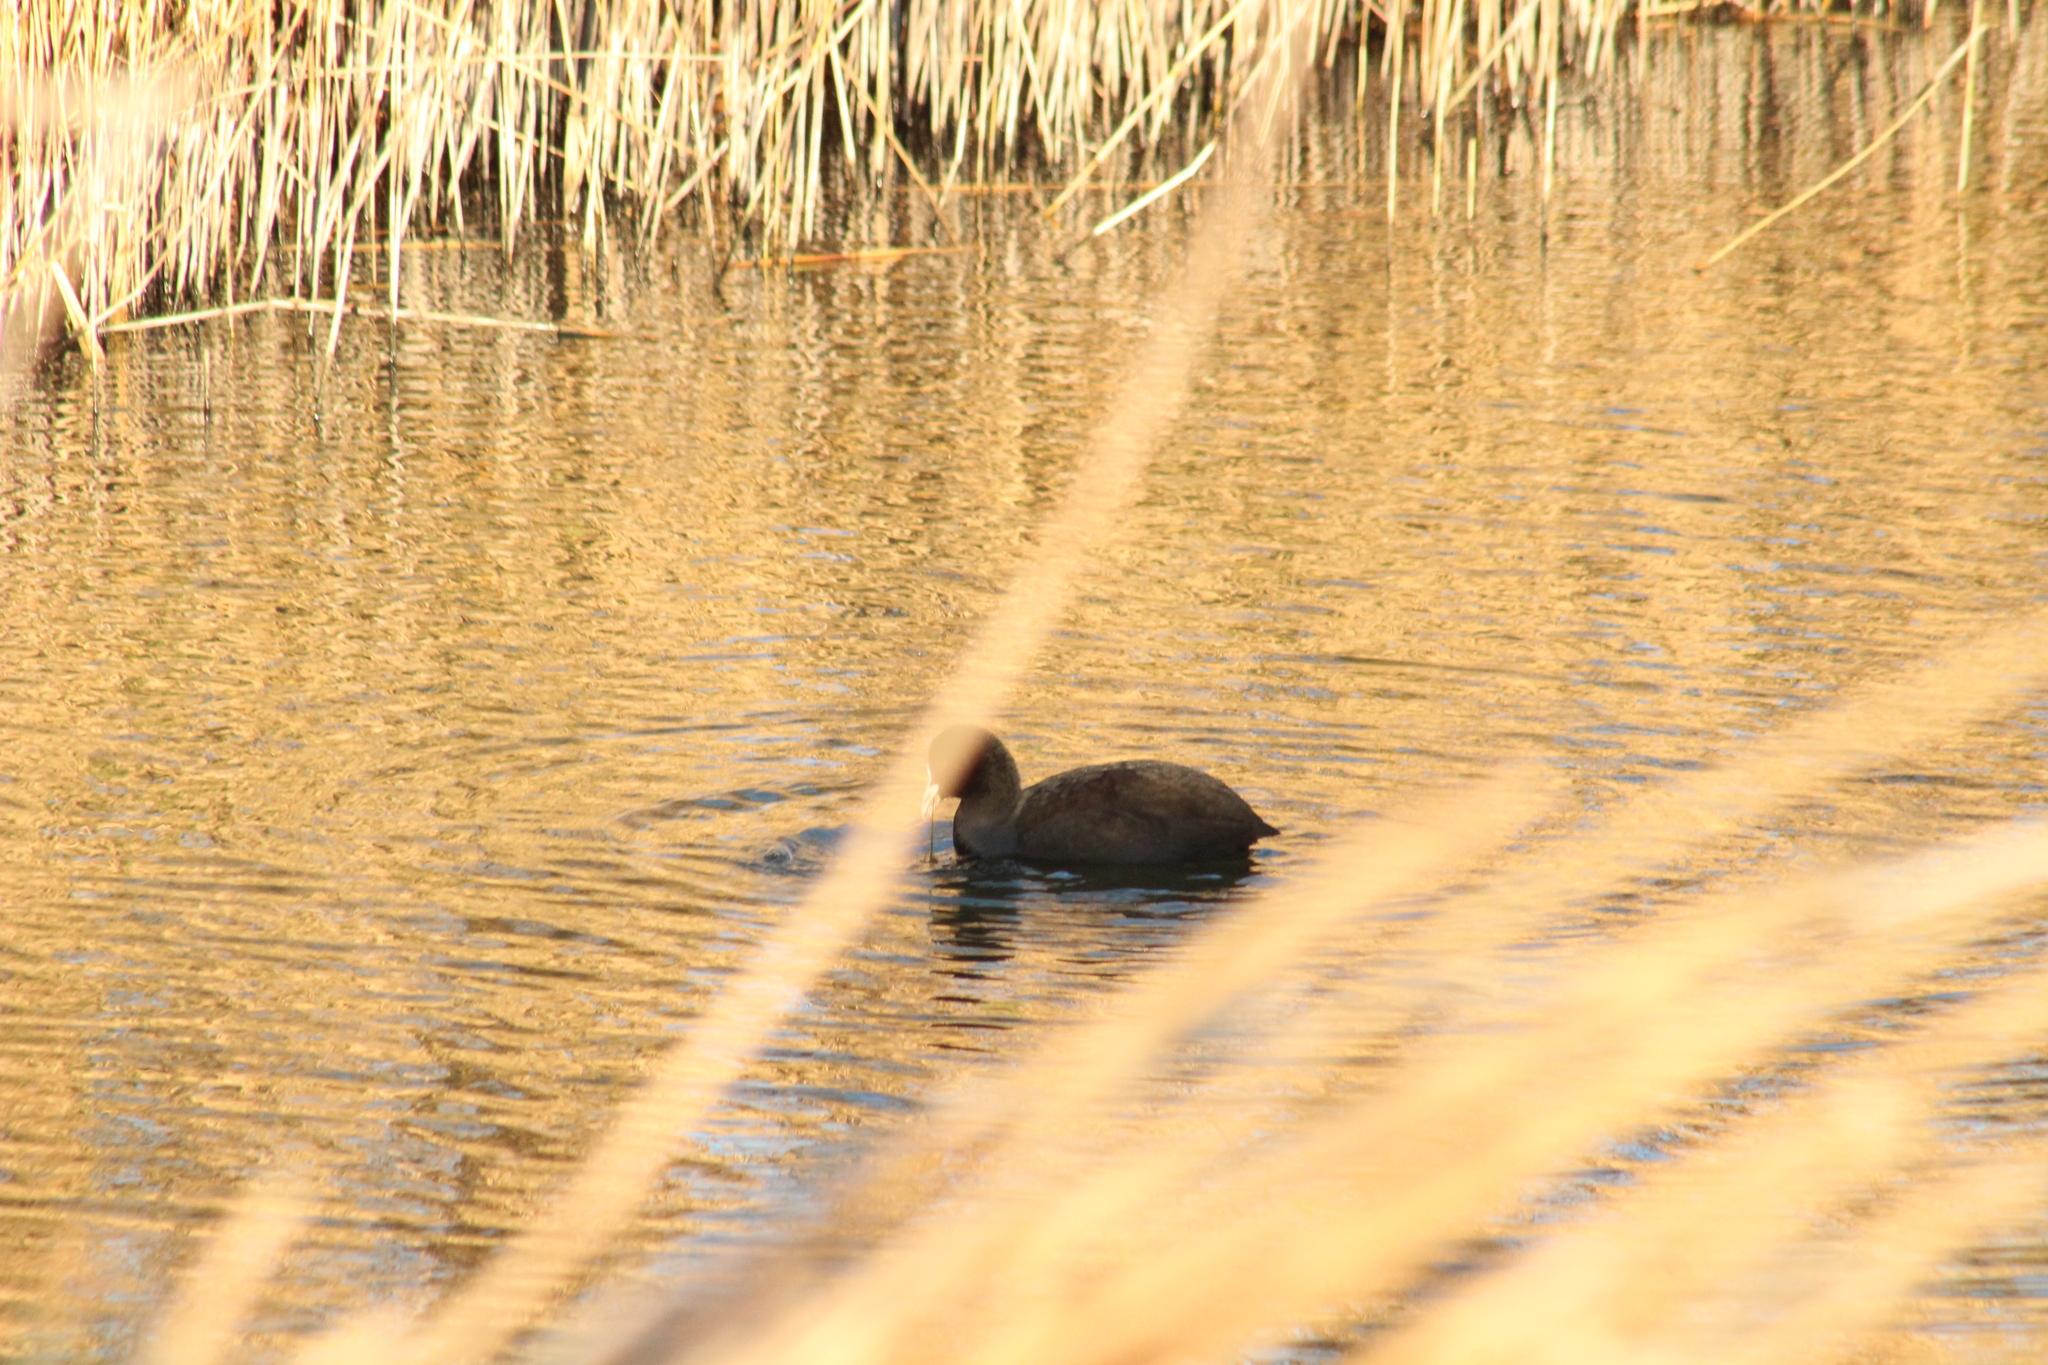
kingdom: Animalia
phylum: Chordata
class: Aves
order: Gruiformes
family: Rallidae
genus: Fulica
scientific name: Fulica atra
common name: Eurasian coot
